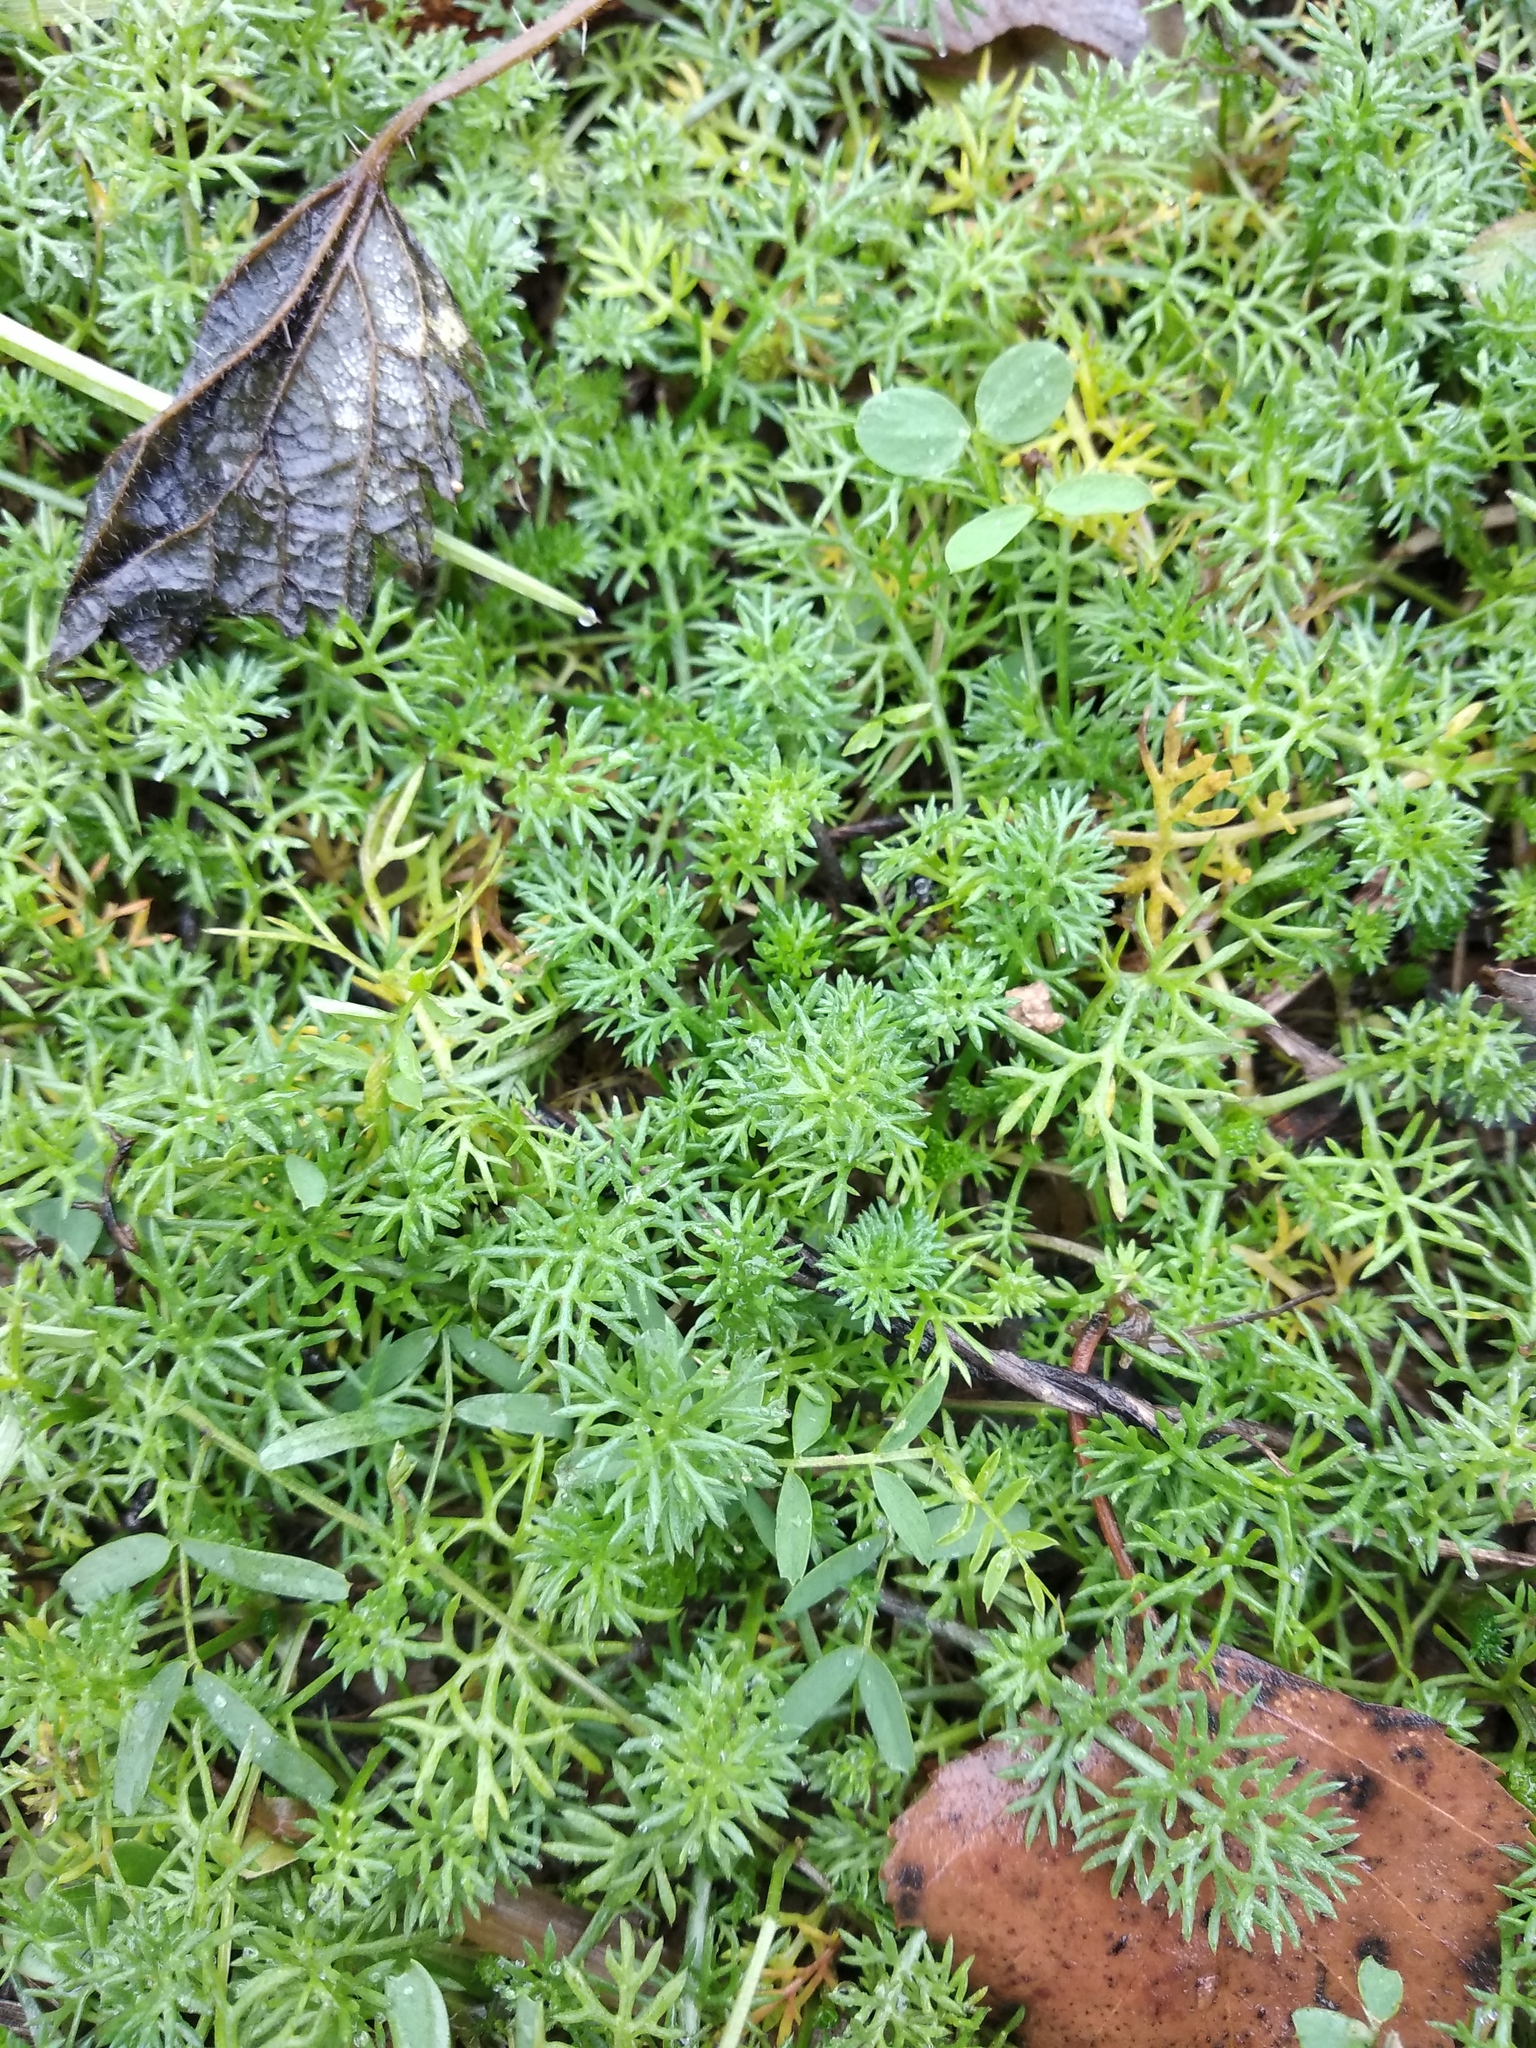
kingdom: Plantae
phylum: Tracheophyta
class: Magnoliopsida
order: Asterales
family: Asteraceae
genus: Tripleurospermum
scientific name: Tripleurospermum inodorum
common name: Scentless mayweed
